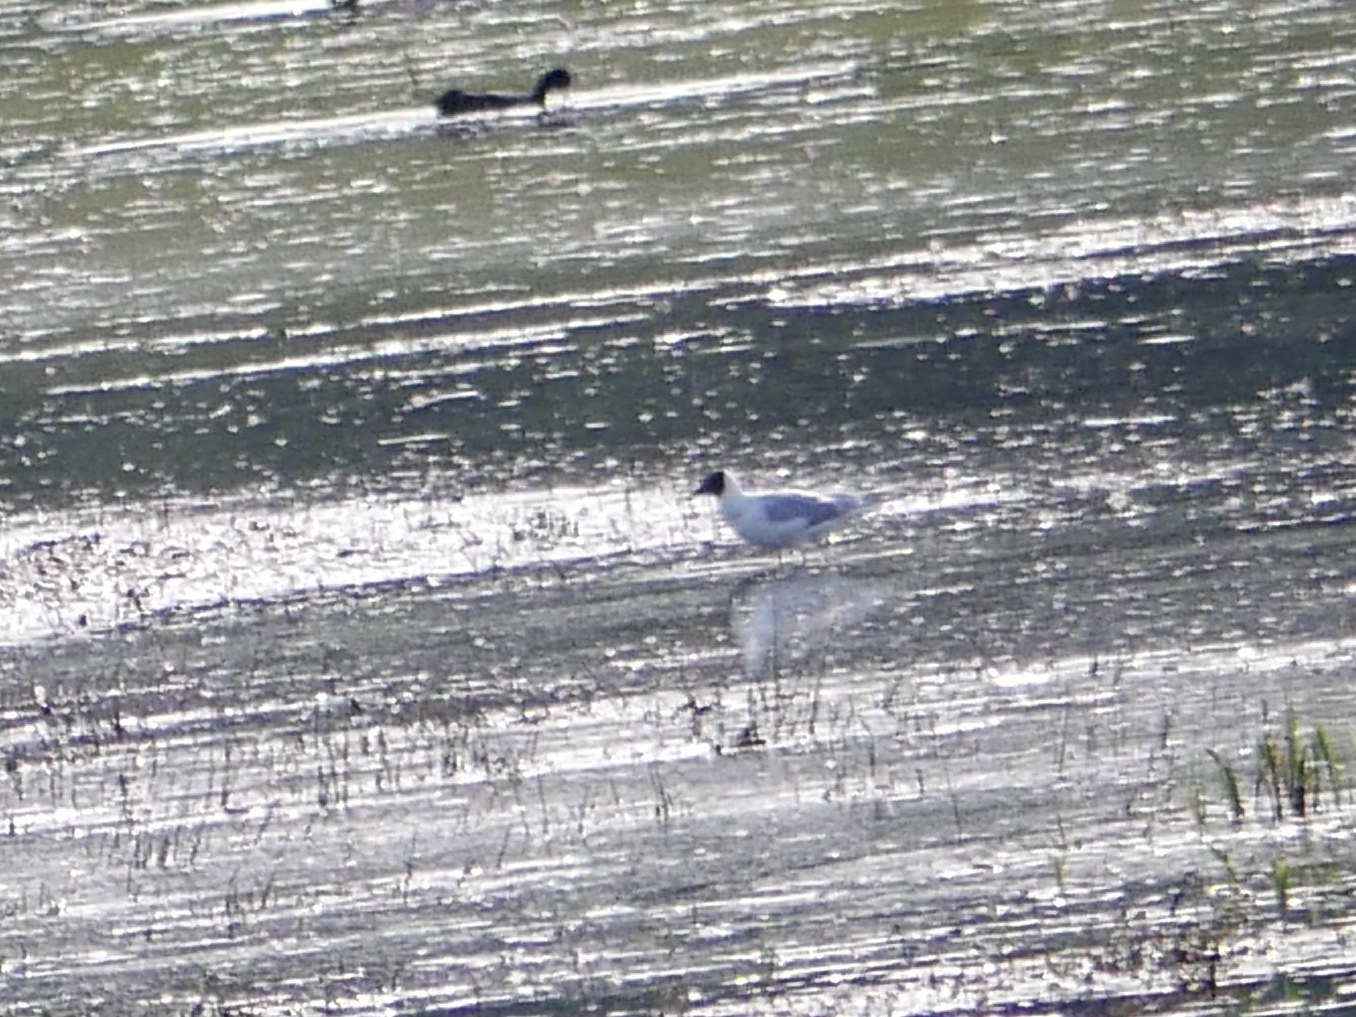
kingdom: Animalia
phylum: Chordata
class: Aves
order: Charadriiformes
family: Laridae
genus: Chroicocephalus
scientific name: Chroicocephalus ridibundus
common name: Black-headed gull
